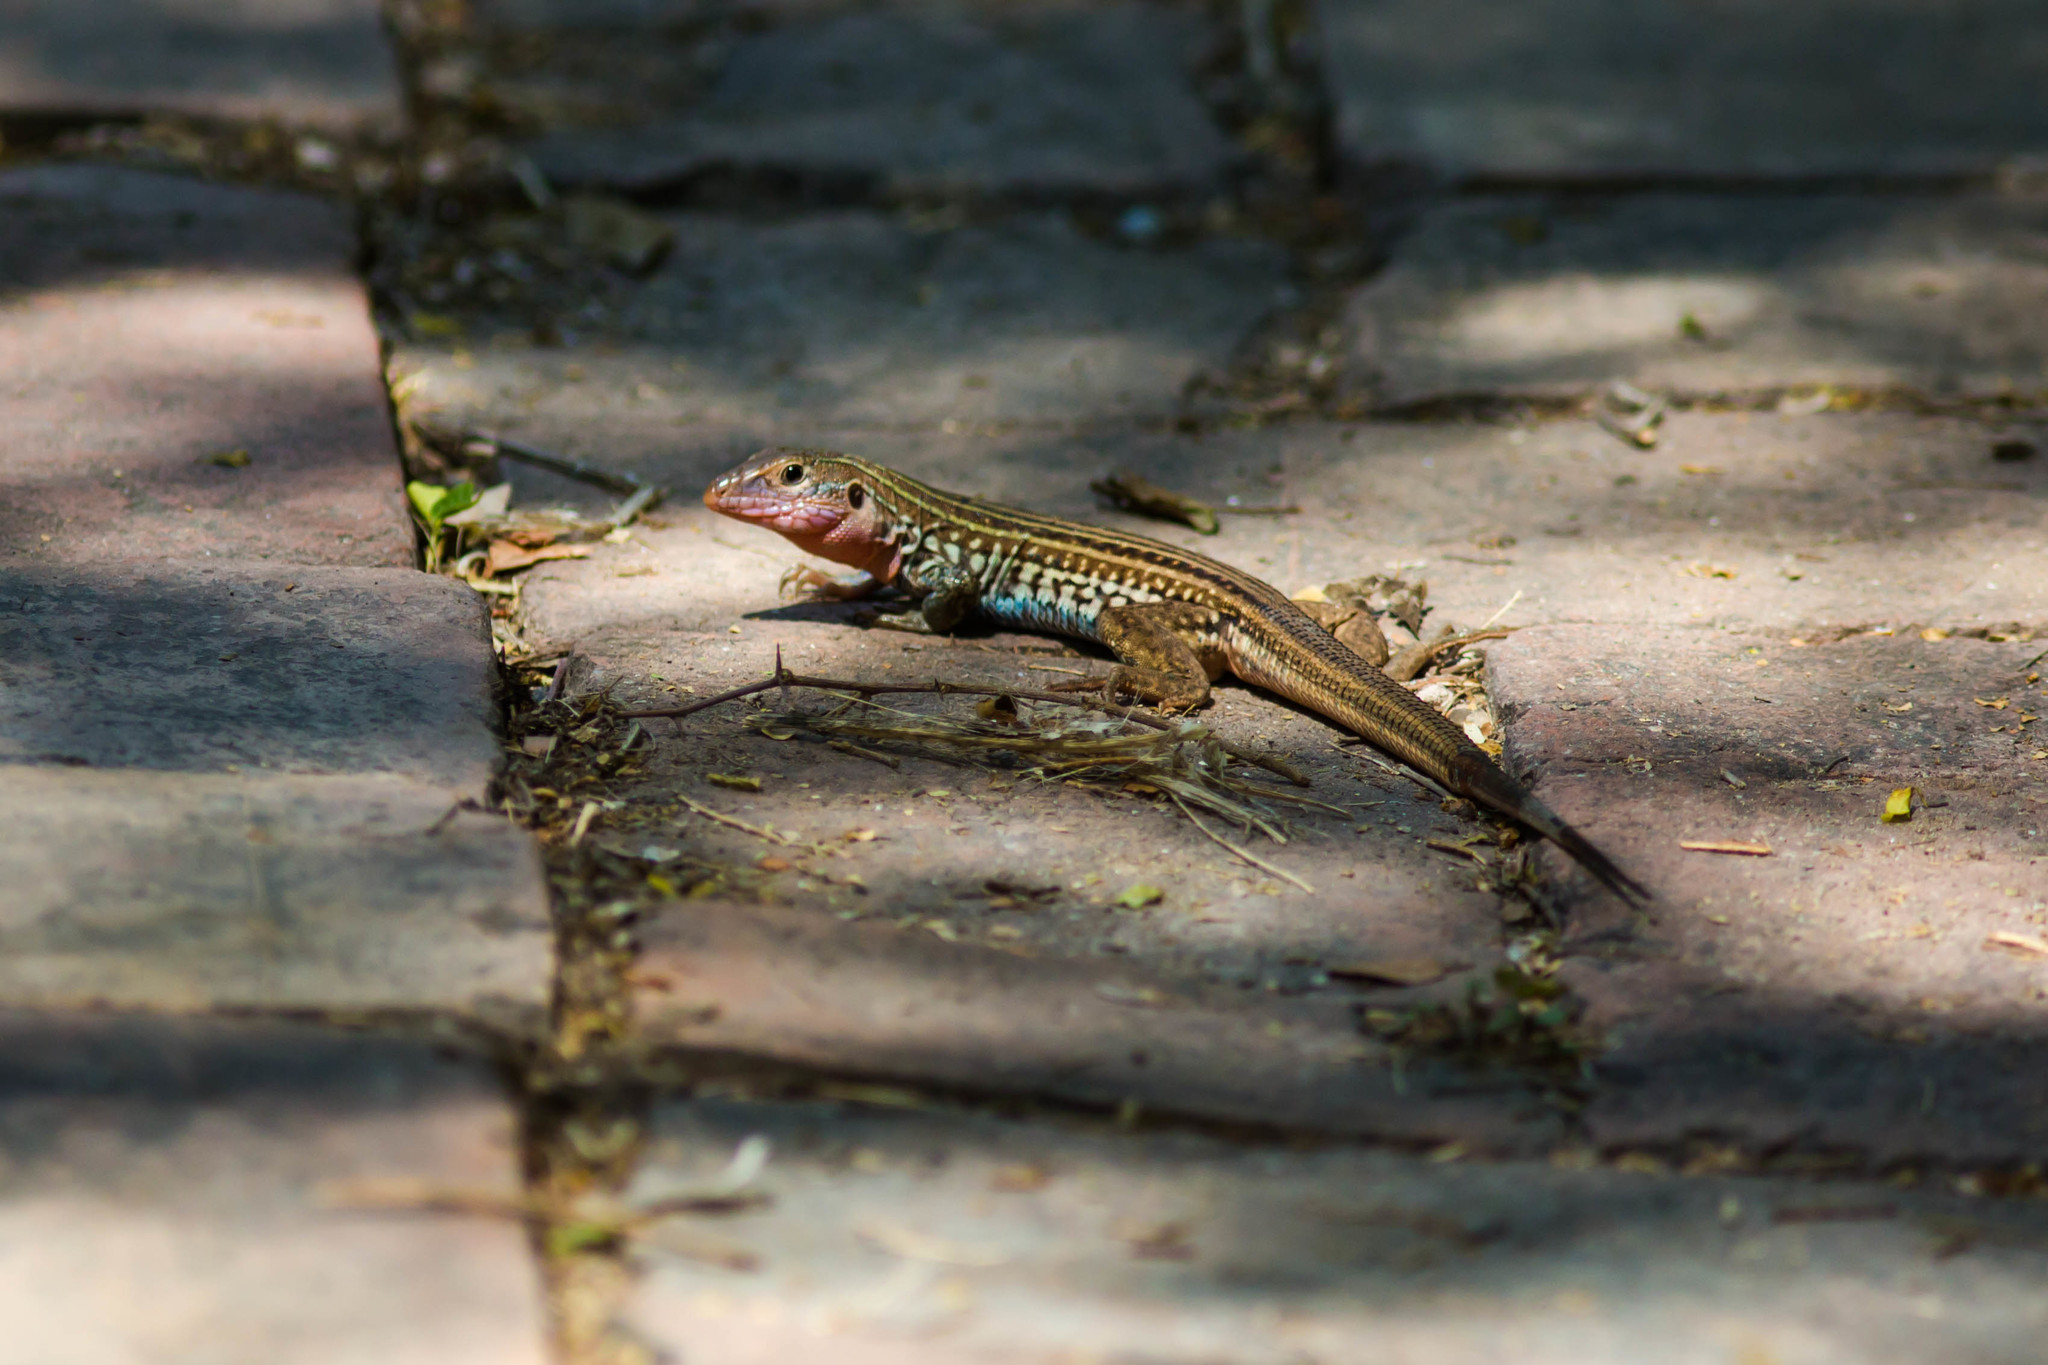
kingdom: Animalia
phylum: Chordata
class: Squamata
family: Teiidae
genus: Aspidoscelis
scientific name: Aspidoscelis gularis
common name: Eastern spotted whiptail
